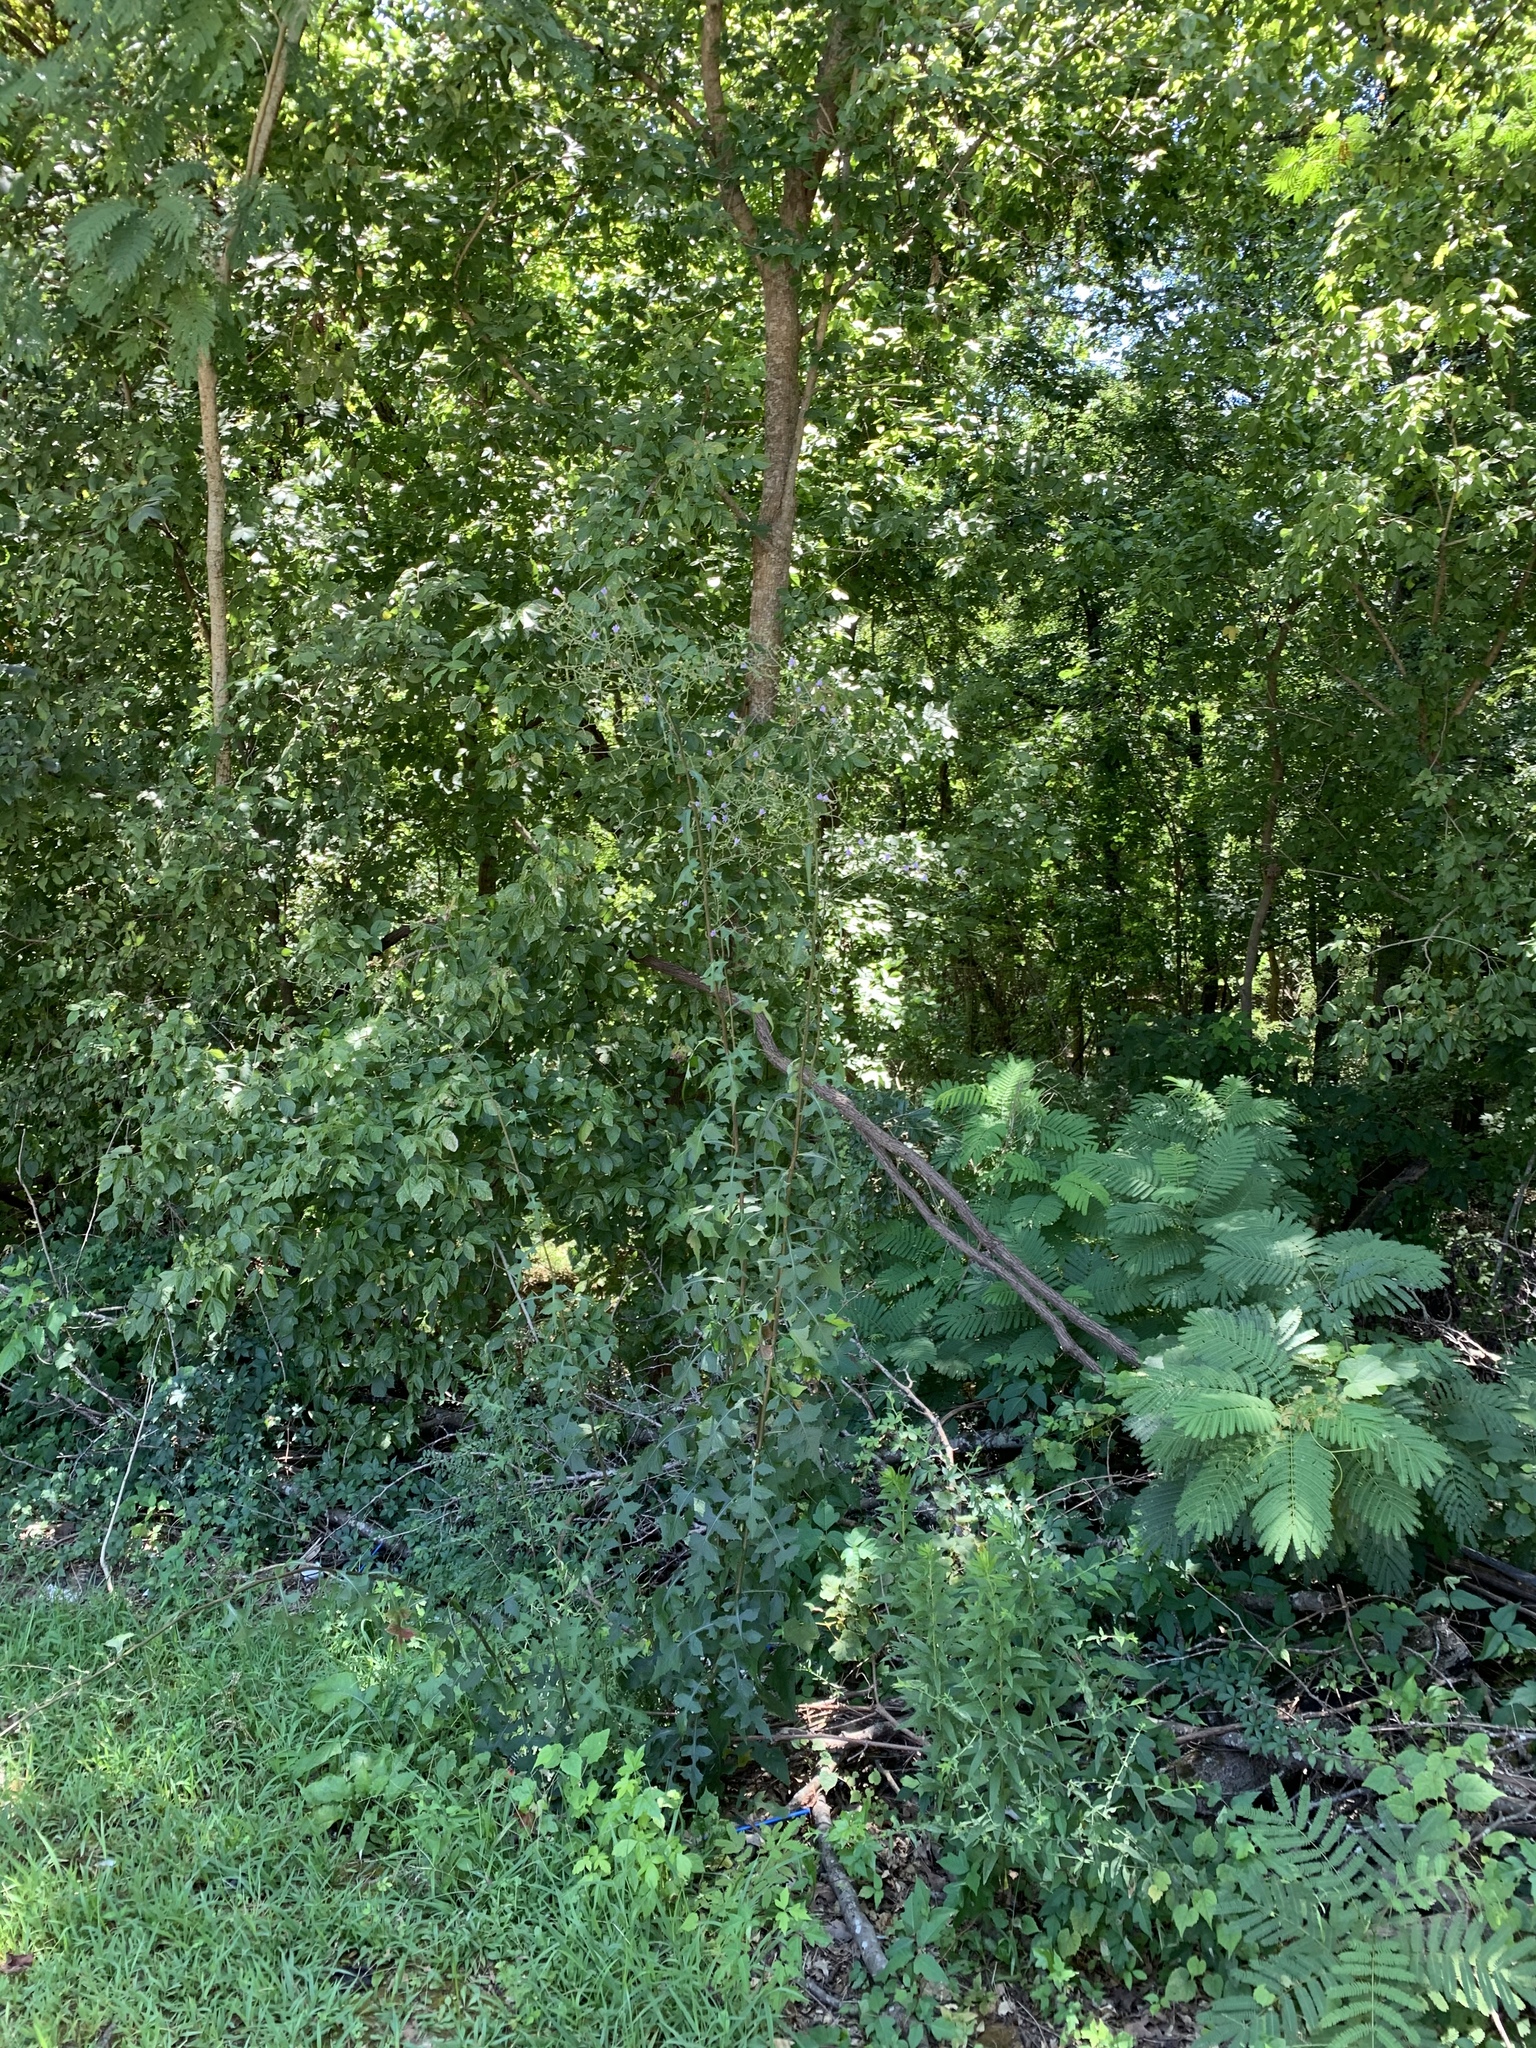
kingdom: Plantae
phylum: Tracheophyta
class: Magnoliopsida
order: Asterales
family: Asteraceae
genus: Lactuca
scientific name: Lactuca floridana
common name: Woodland lettuce
